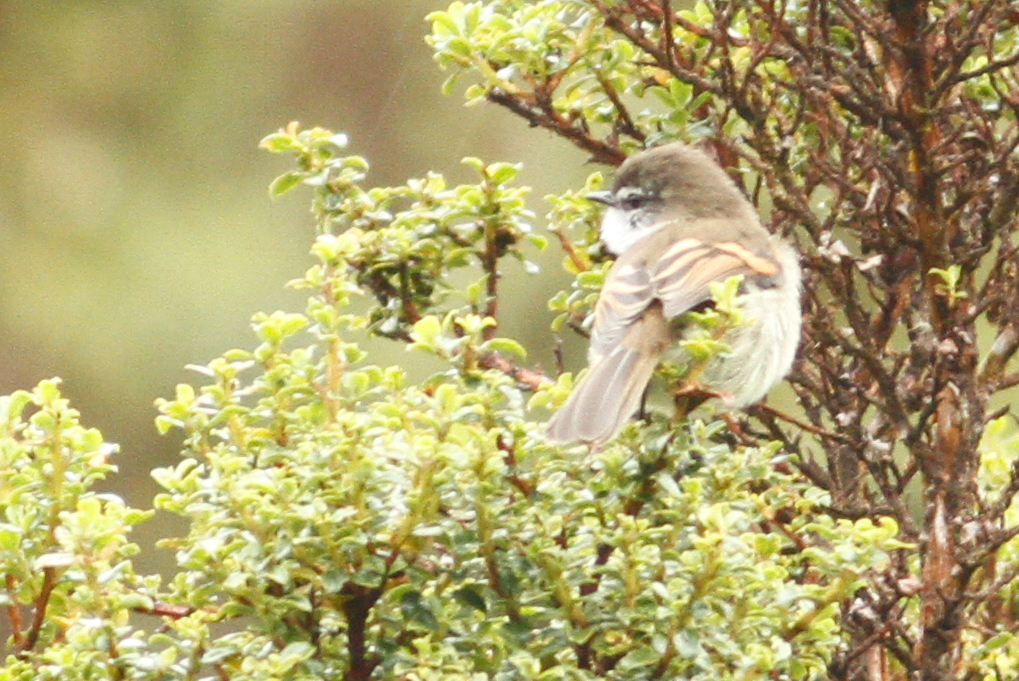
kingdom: Animalia
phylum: Chordata
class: Aves
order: Passeriformes
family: Tyrannidae
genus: Mecocerculus
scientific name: Mecocerculus leucophrys
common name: White-throated tyrannulet
